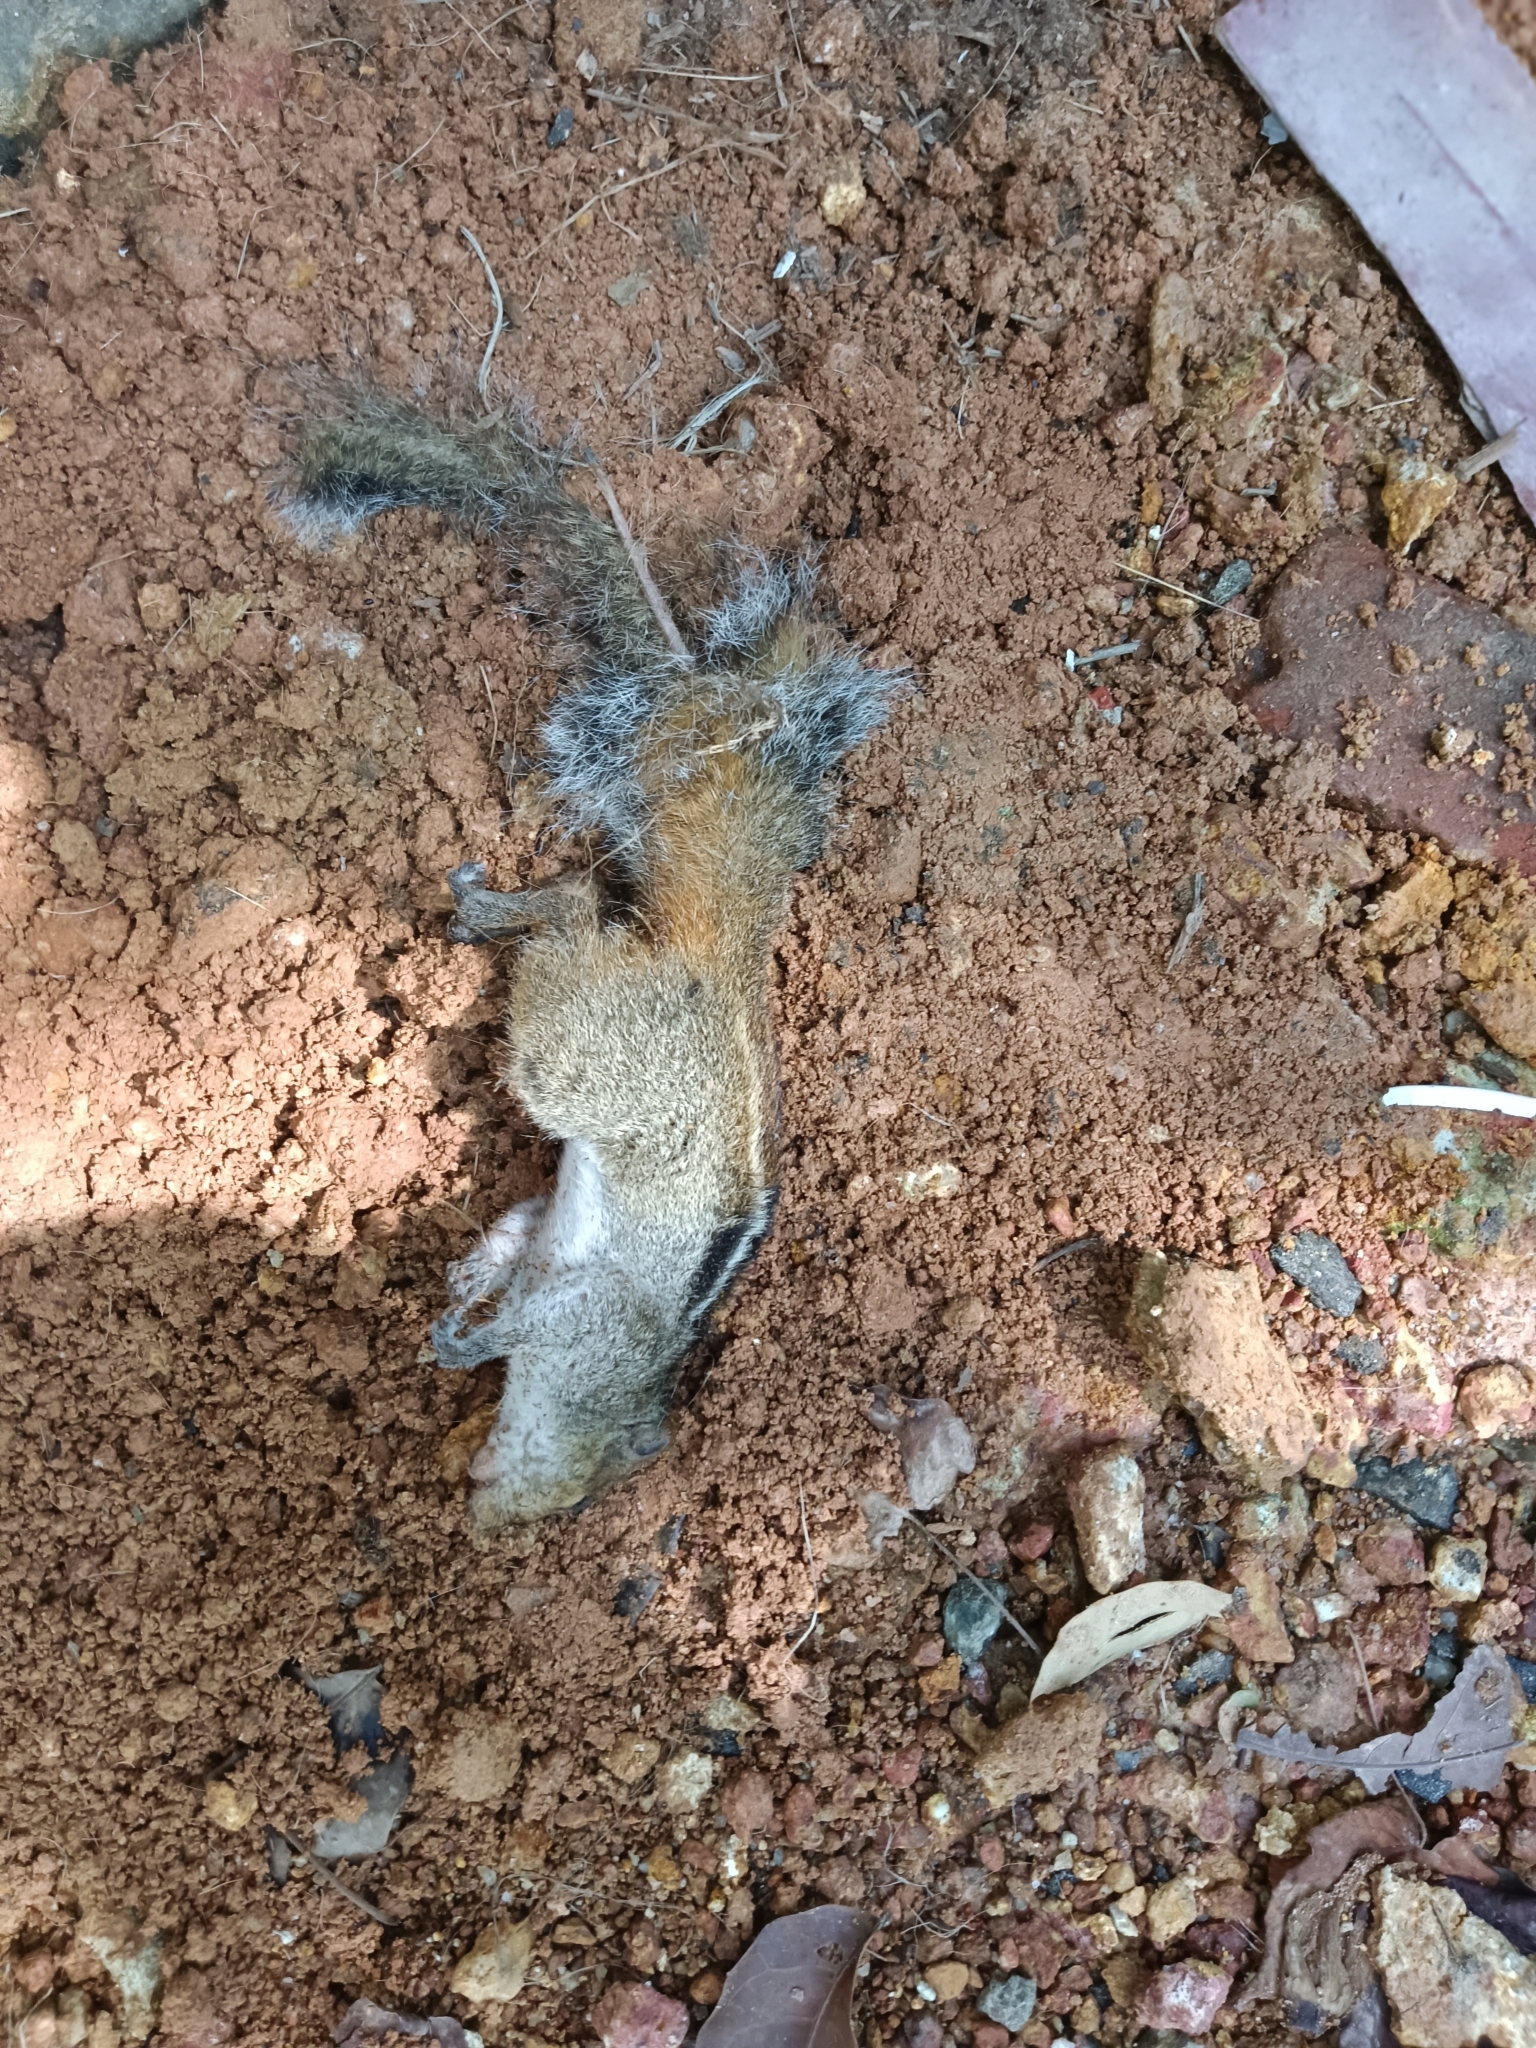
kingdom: Animalia
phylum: Chordata
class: Mammalia
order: Rodentia
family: Sciuridae
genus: Funambulus
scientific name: Funambulus tristriatus
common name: Jungle palm squirrel
